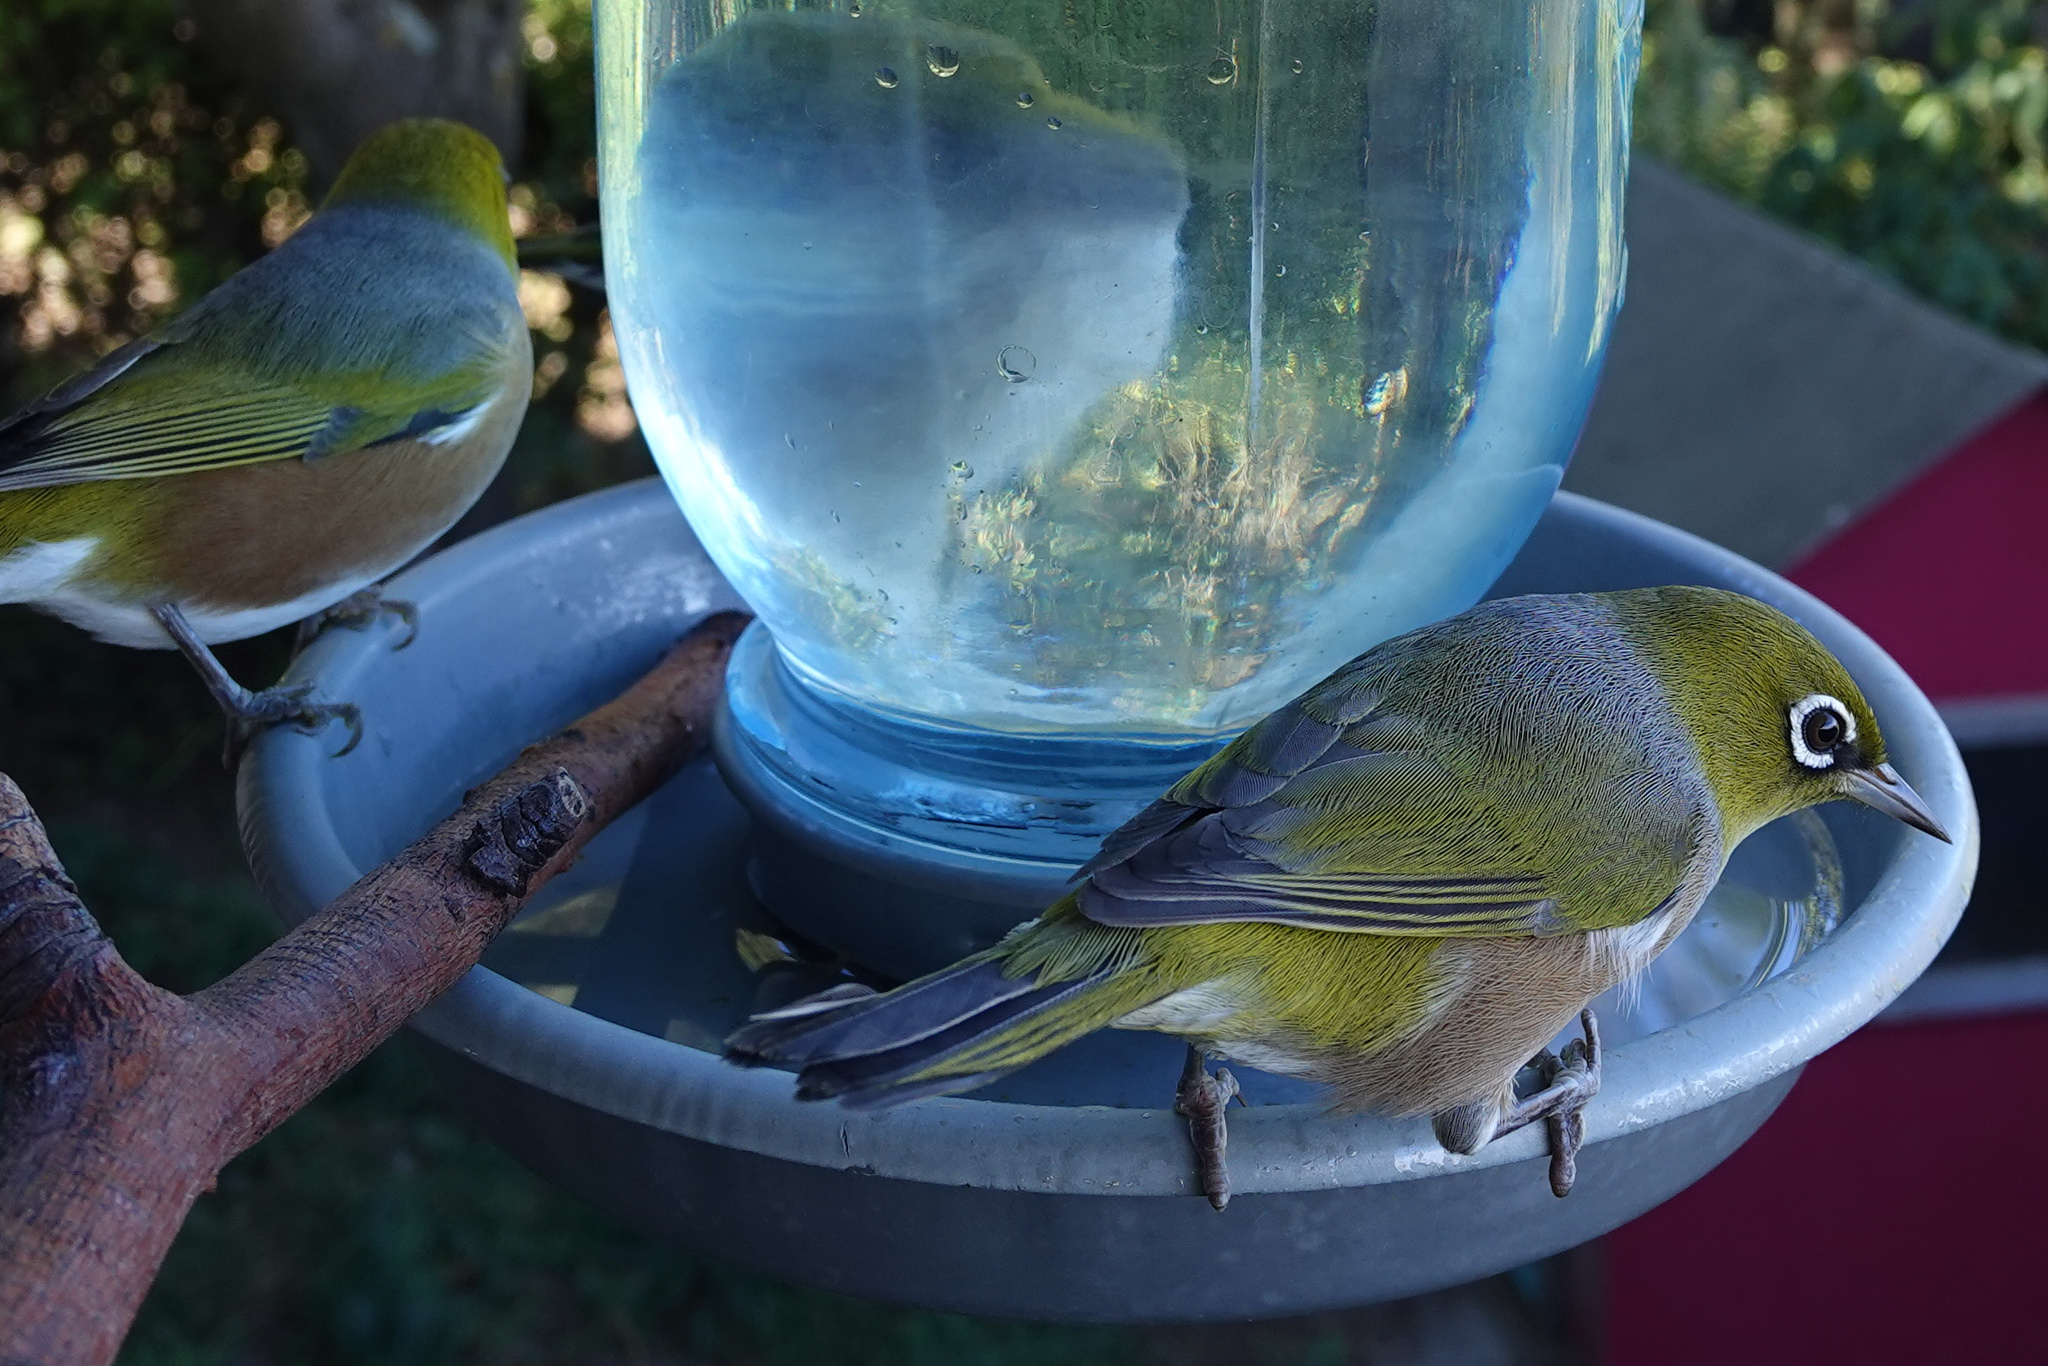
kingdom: Animalia
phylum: Chordata
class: Aves
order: Passeriformes
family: Zosteropidae
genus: Zosterops
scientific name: Zosterops lateralis
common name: Silvereye
